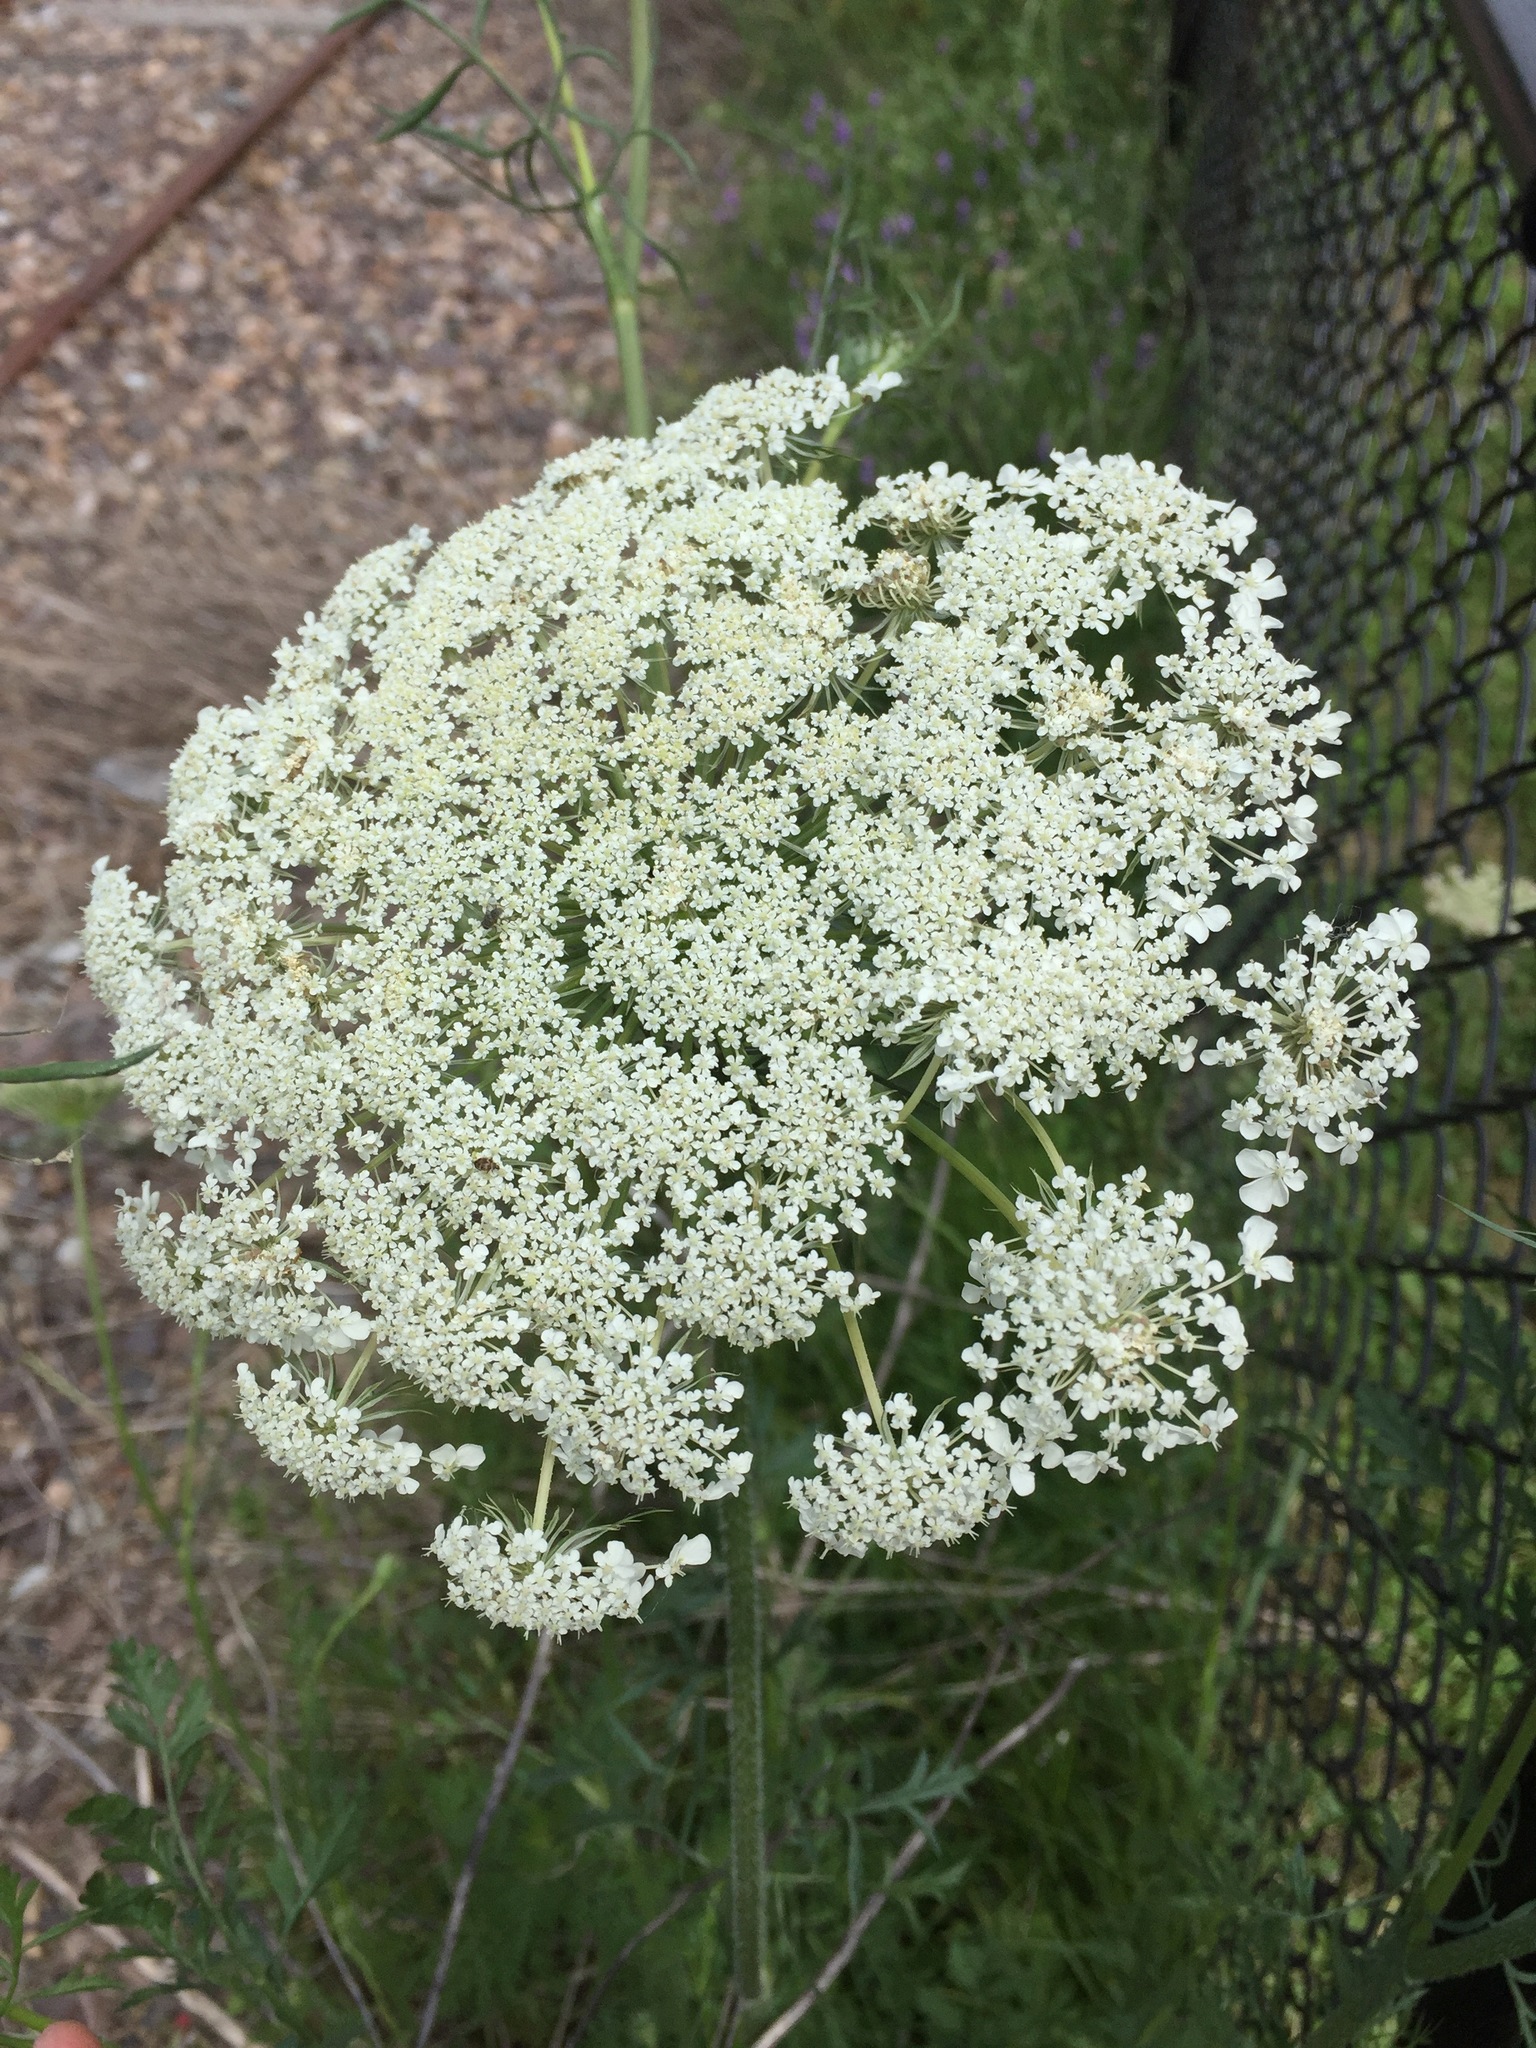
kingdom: Plantae
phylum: Tracheophyta
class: Magnoliopsida
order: Apiales
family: Apiaceae
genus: Daucus
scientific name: Daucus carota
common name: Wild carrot
